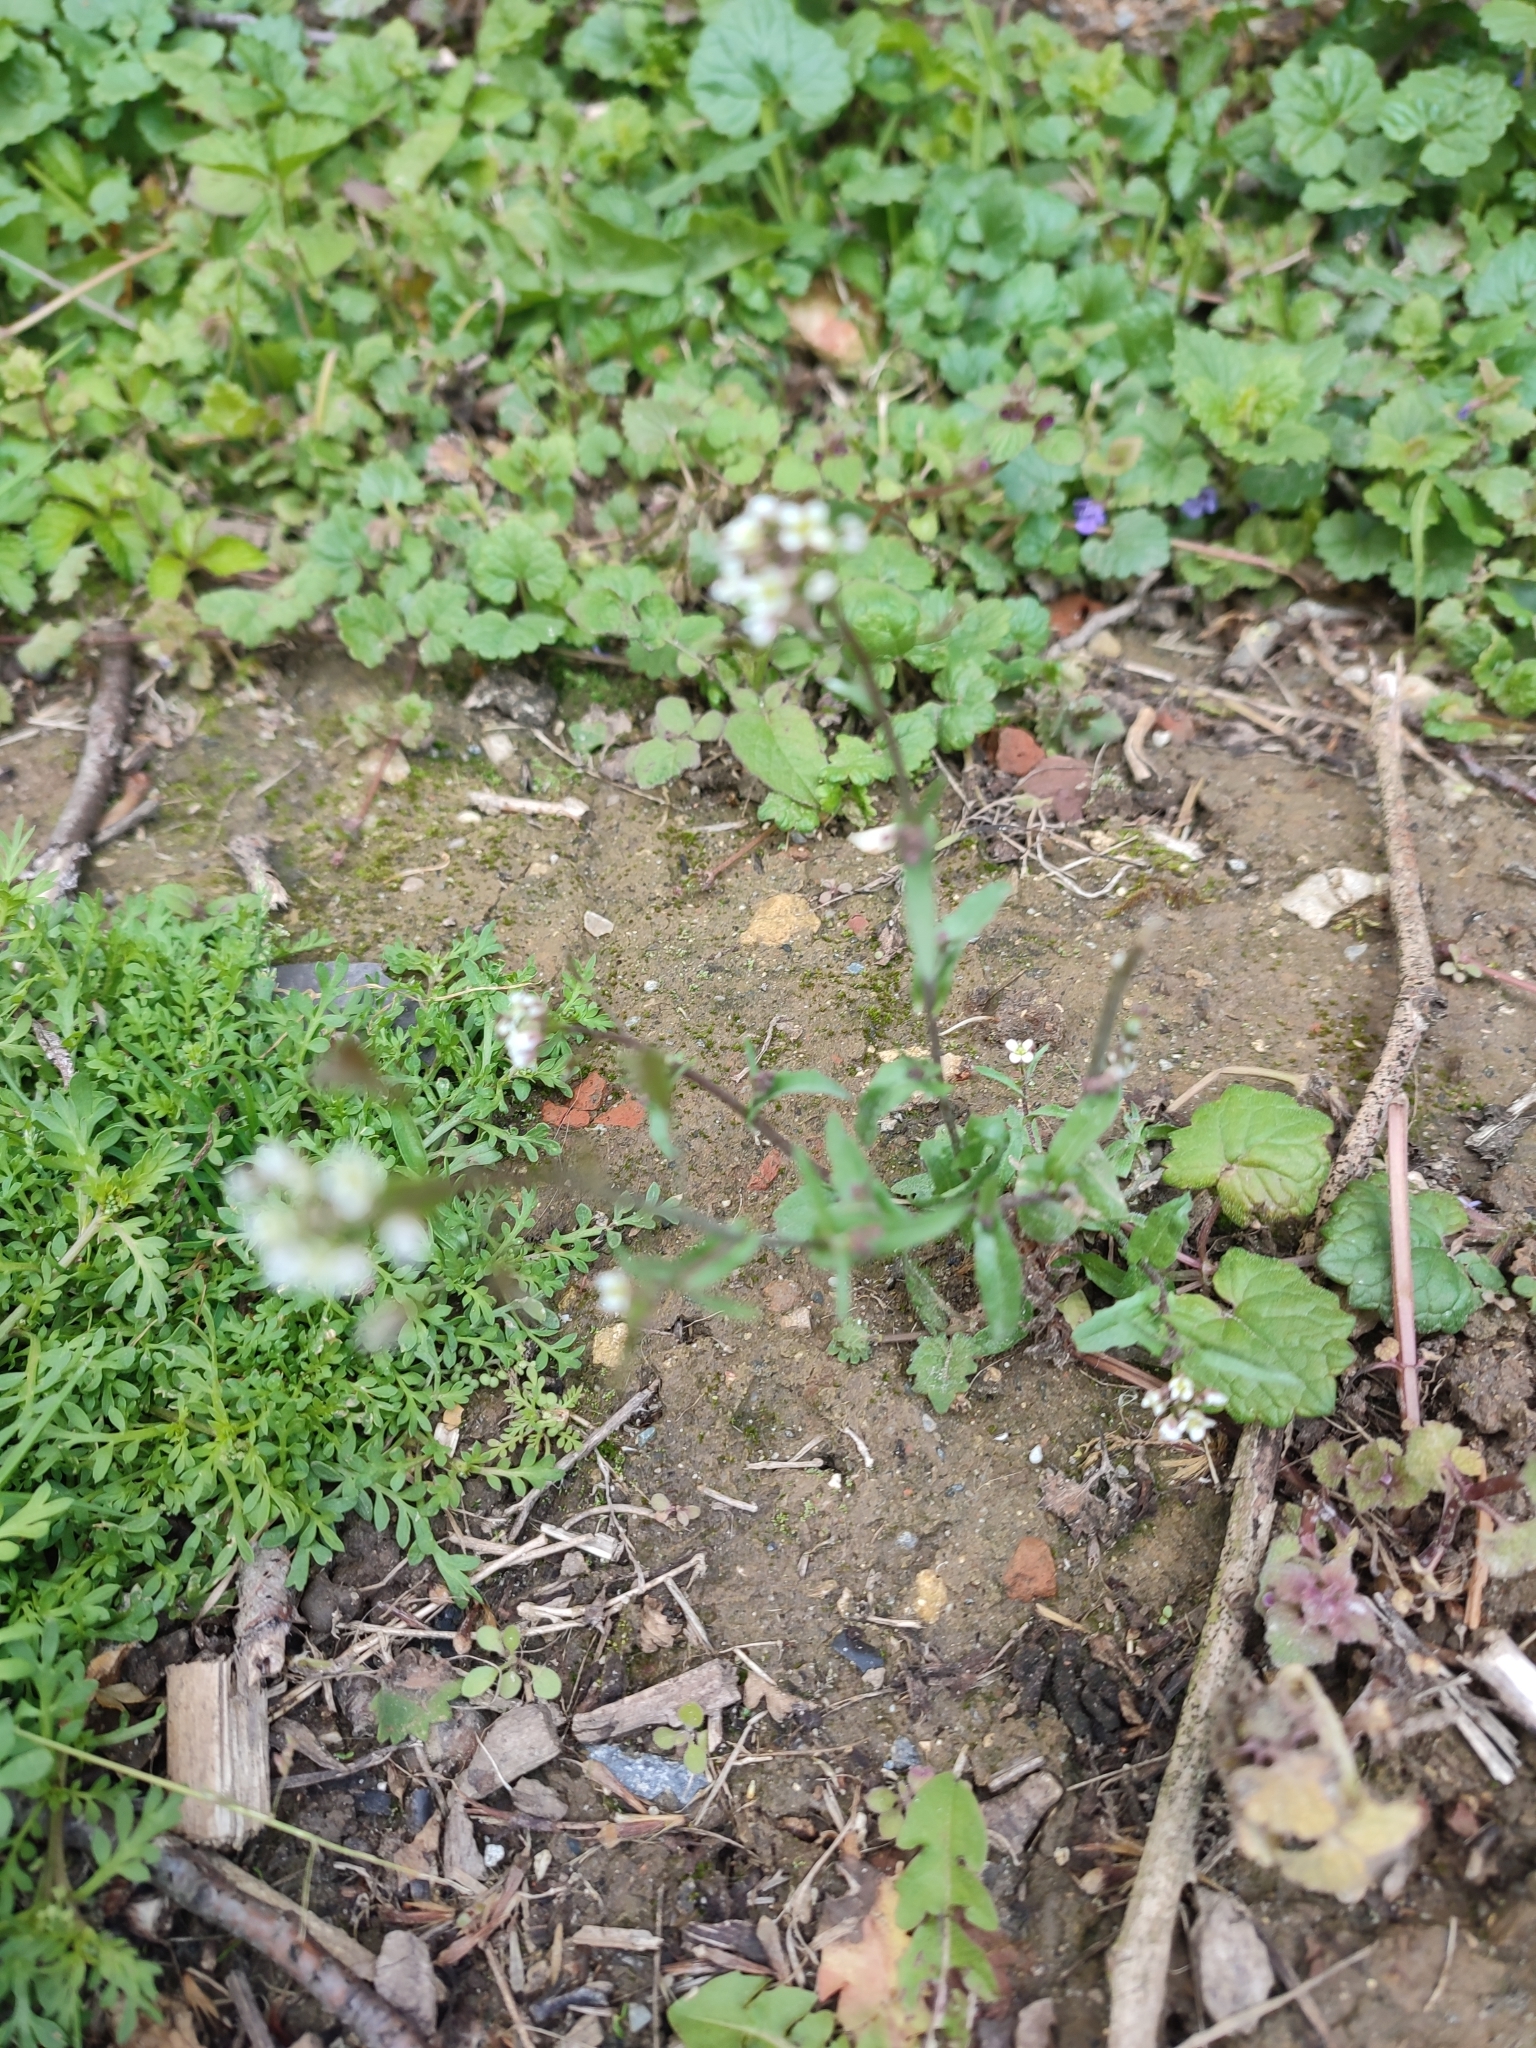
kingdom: Plantae
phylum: Tracheophyta
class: Magnoliopsida
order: Brassicales
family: Brassicaceae
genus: Capsella
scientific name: Capsella bursa-pastoris
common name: Shepherd's purse
